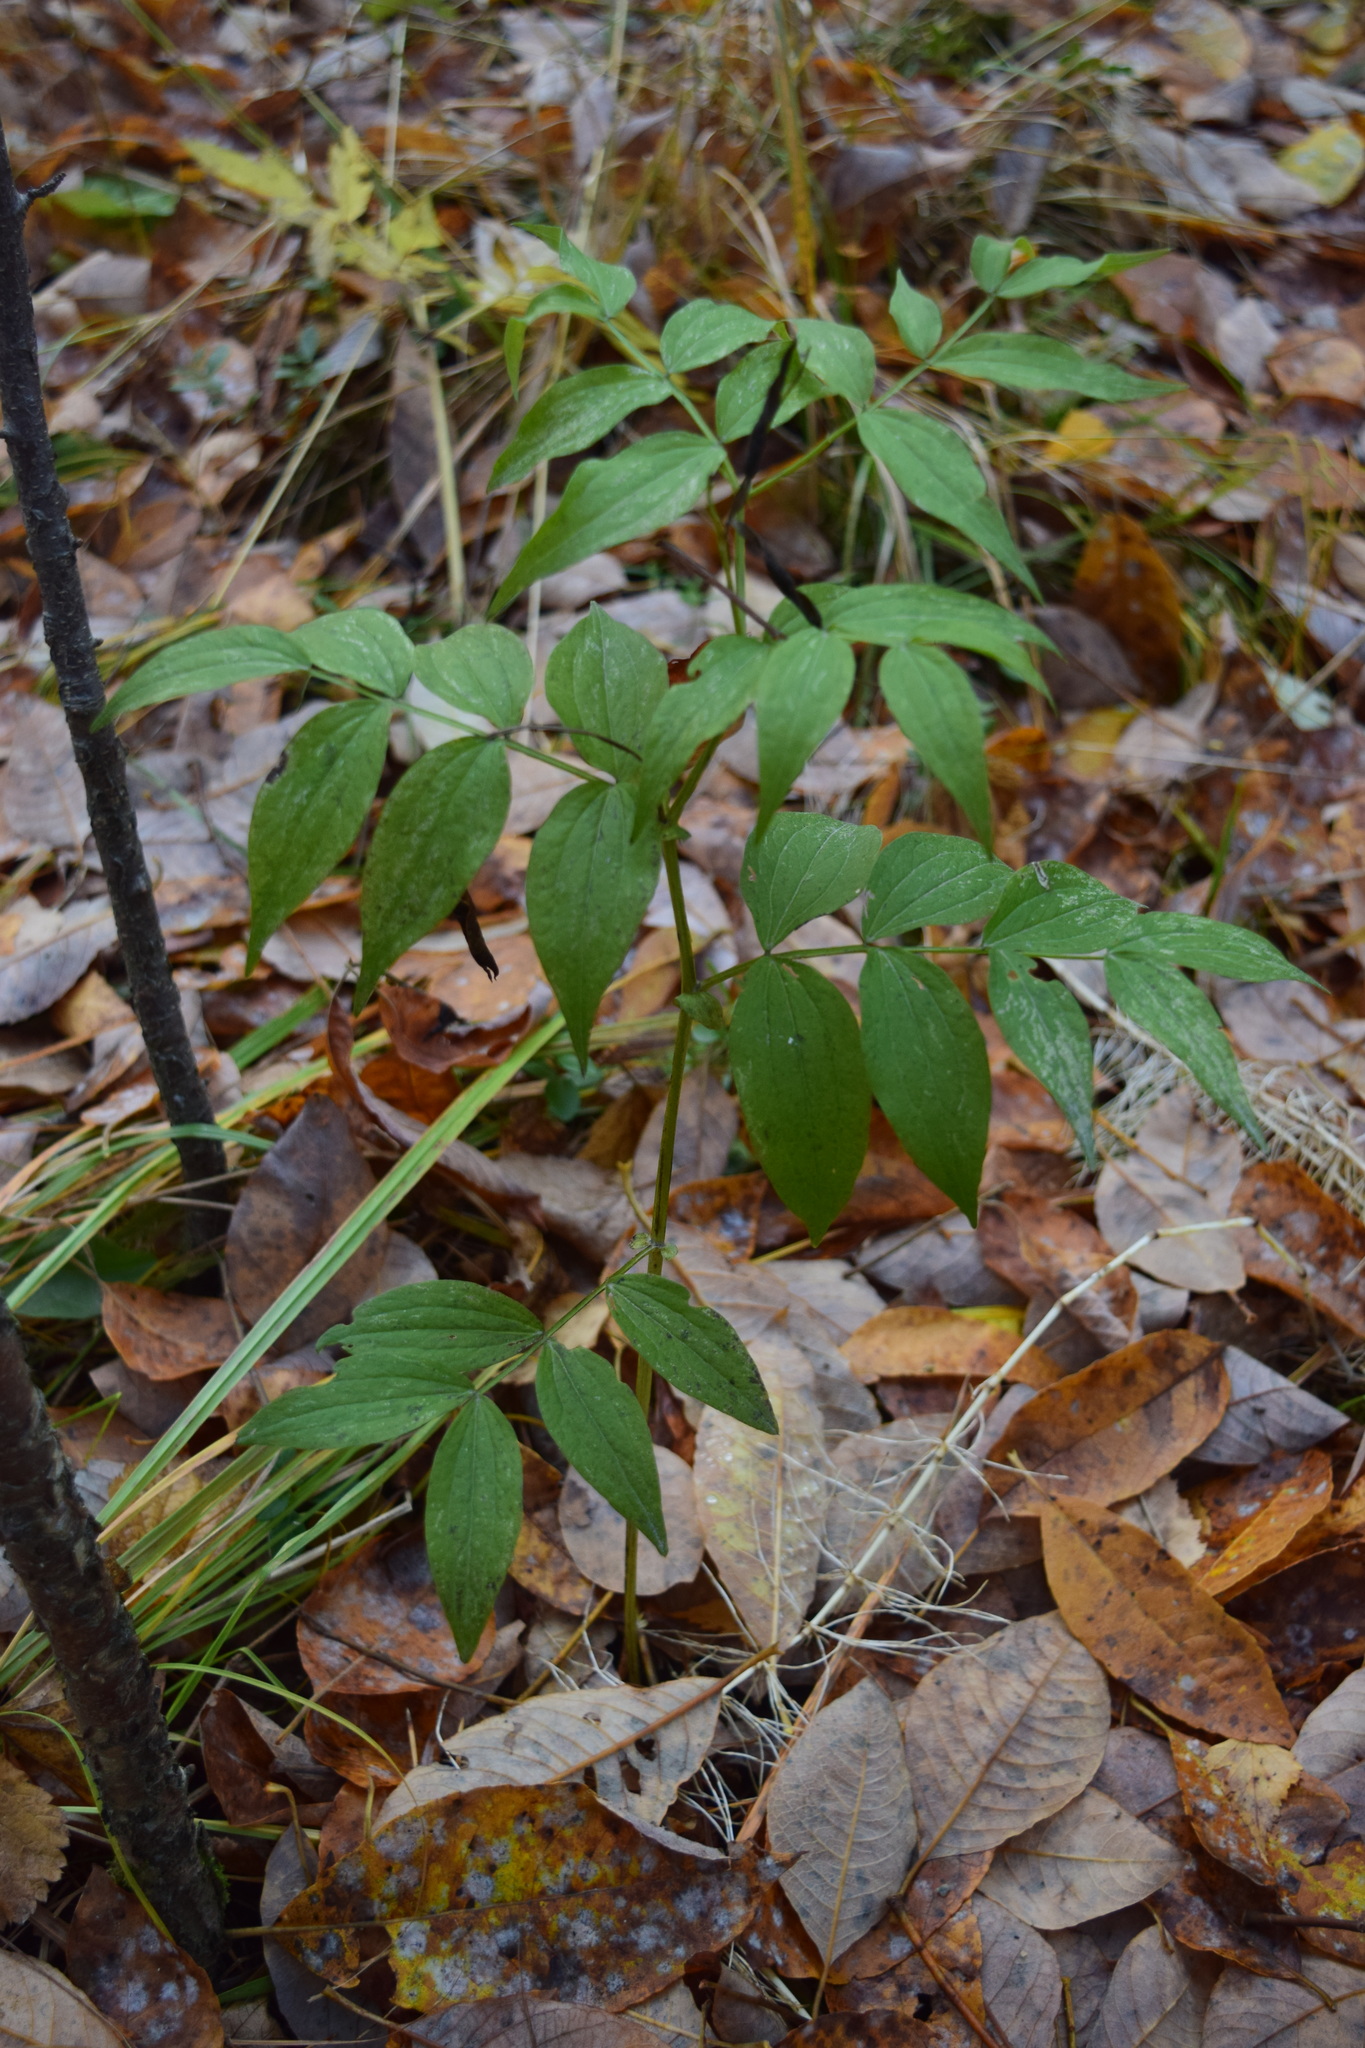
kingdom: Plantae
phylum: Tracheophyta
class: Magnoliopsida
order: Fabales
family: Fabaceae
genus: Lathyrus
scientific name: Lathyrus vernus
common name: Spring pea
